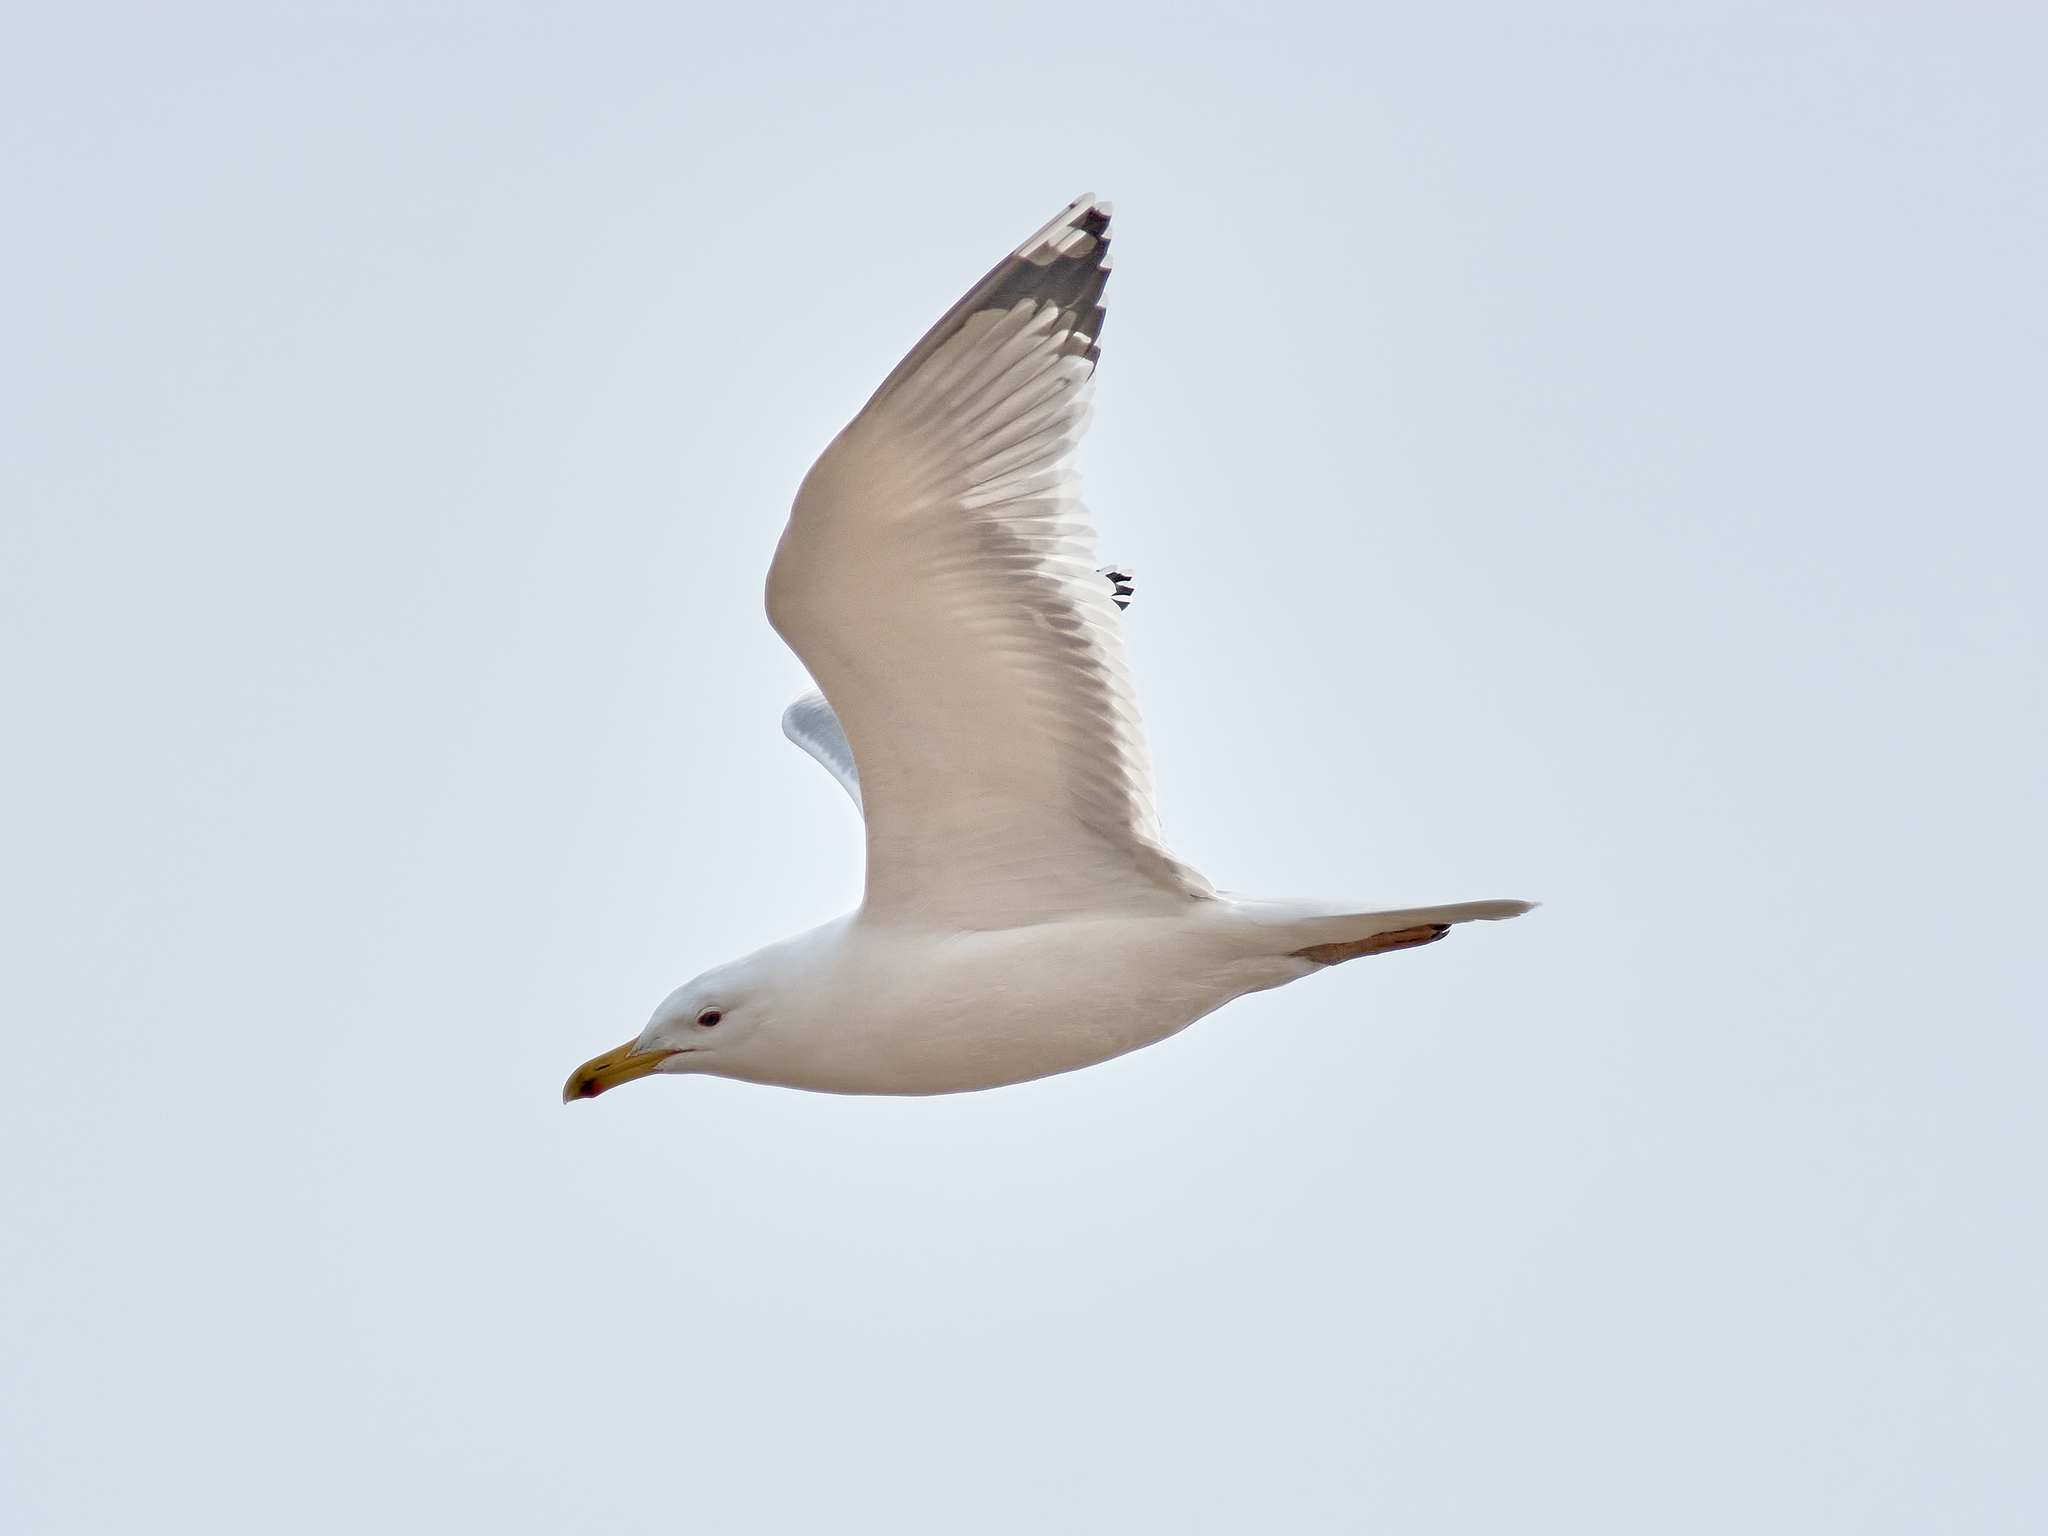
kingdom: Animalia
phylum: Chordata
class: Aves
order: Charadriiformes
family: Laridae
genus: Larus
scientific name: Larus cachinnans
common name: Caspian gull
